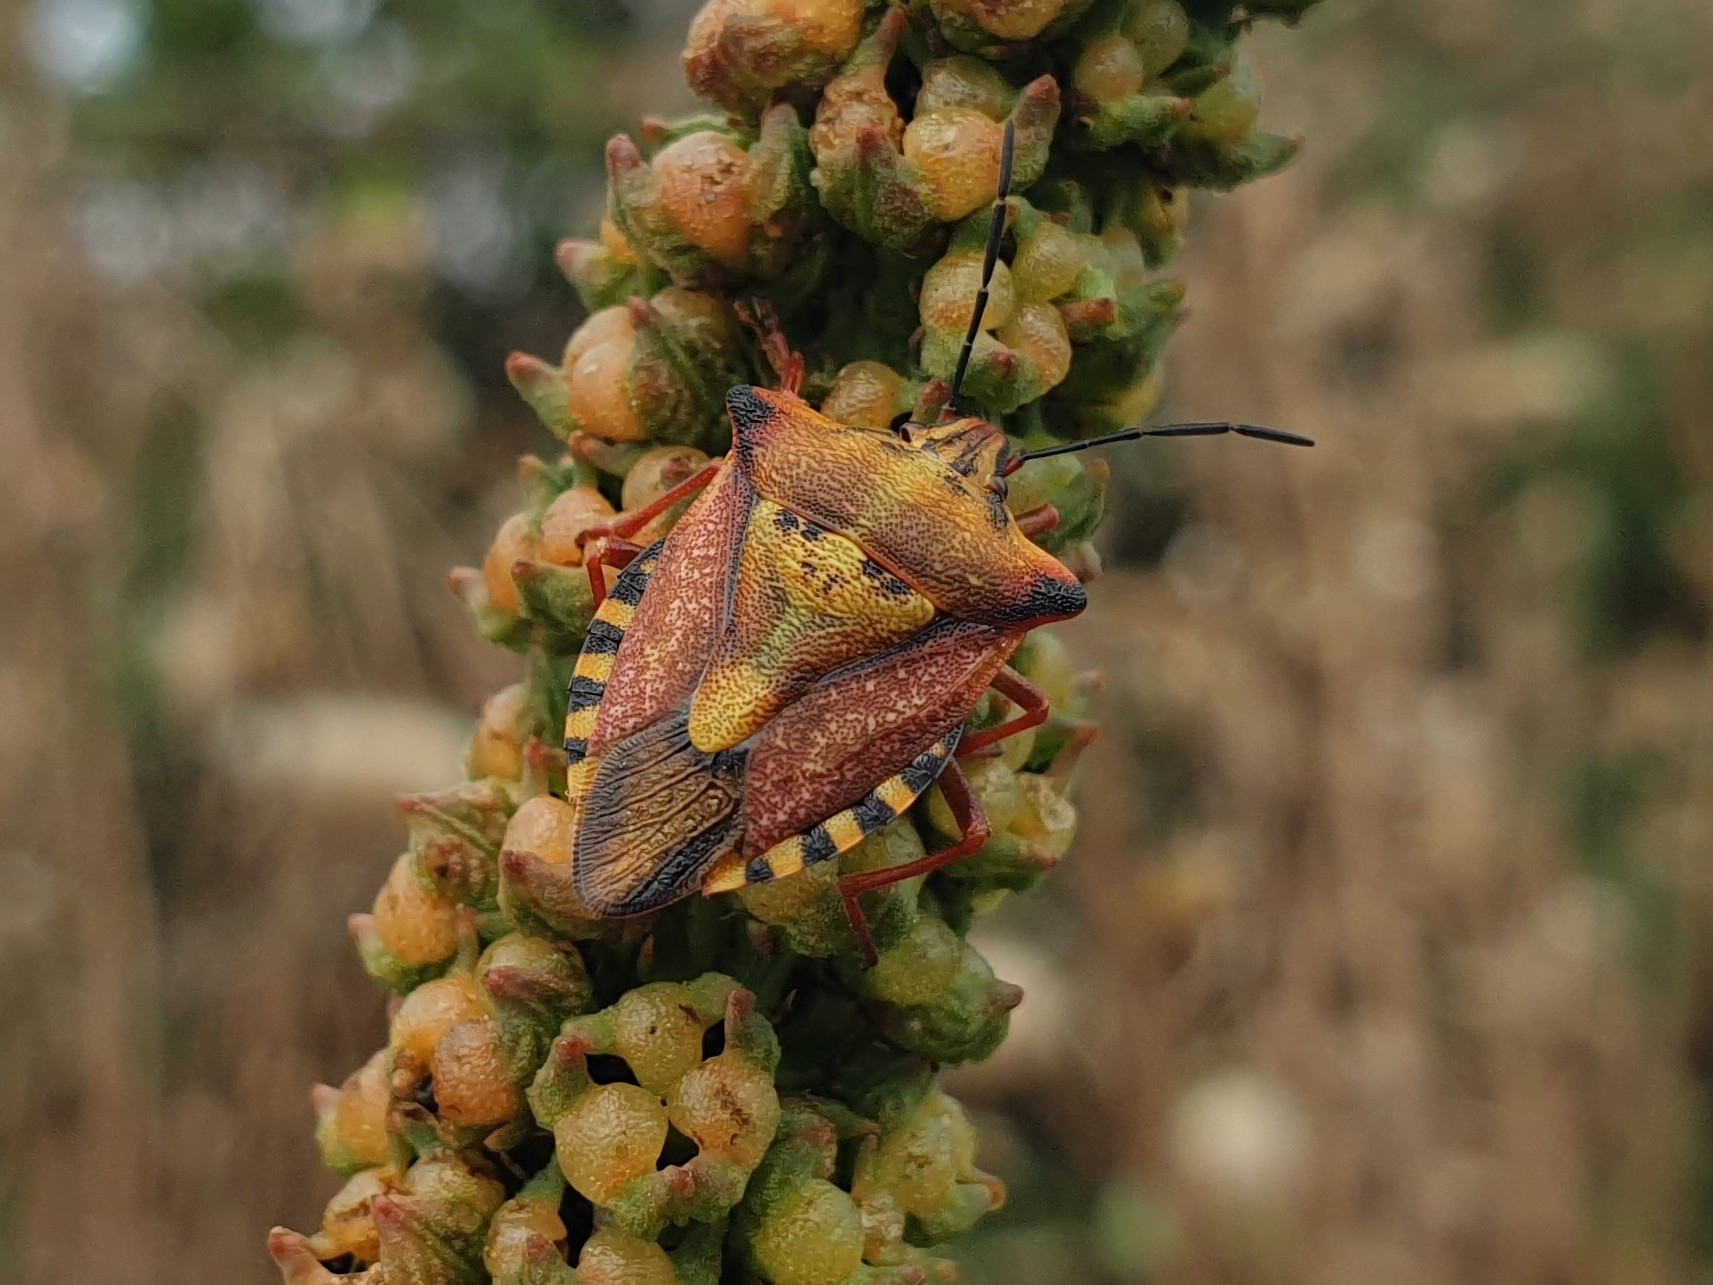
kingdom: Animalia
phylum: Arthropoda
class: Insecta
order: Hemiptera
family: Pentatomidae
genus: Carpocoris
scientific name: Carpocoris mediterraneus
